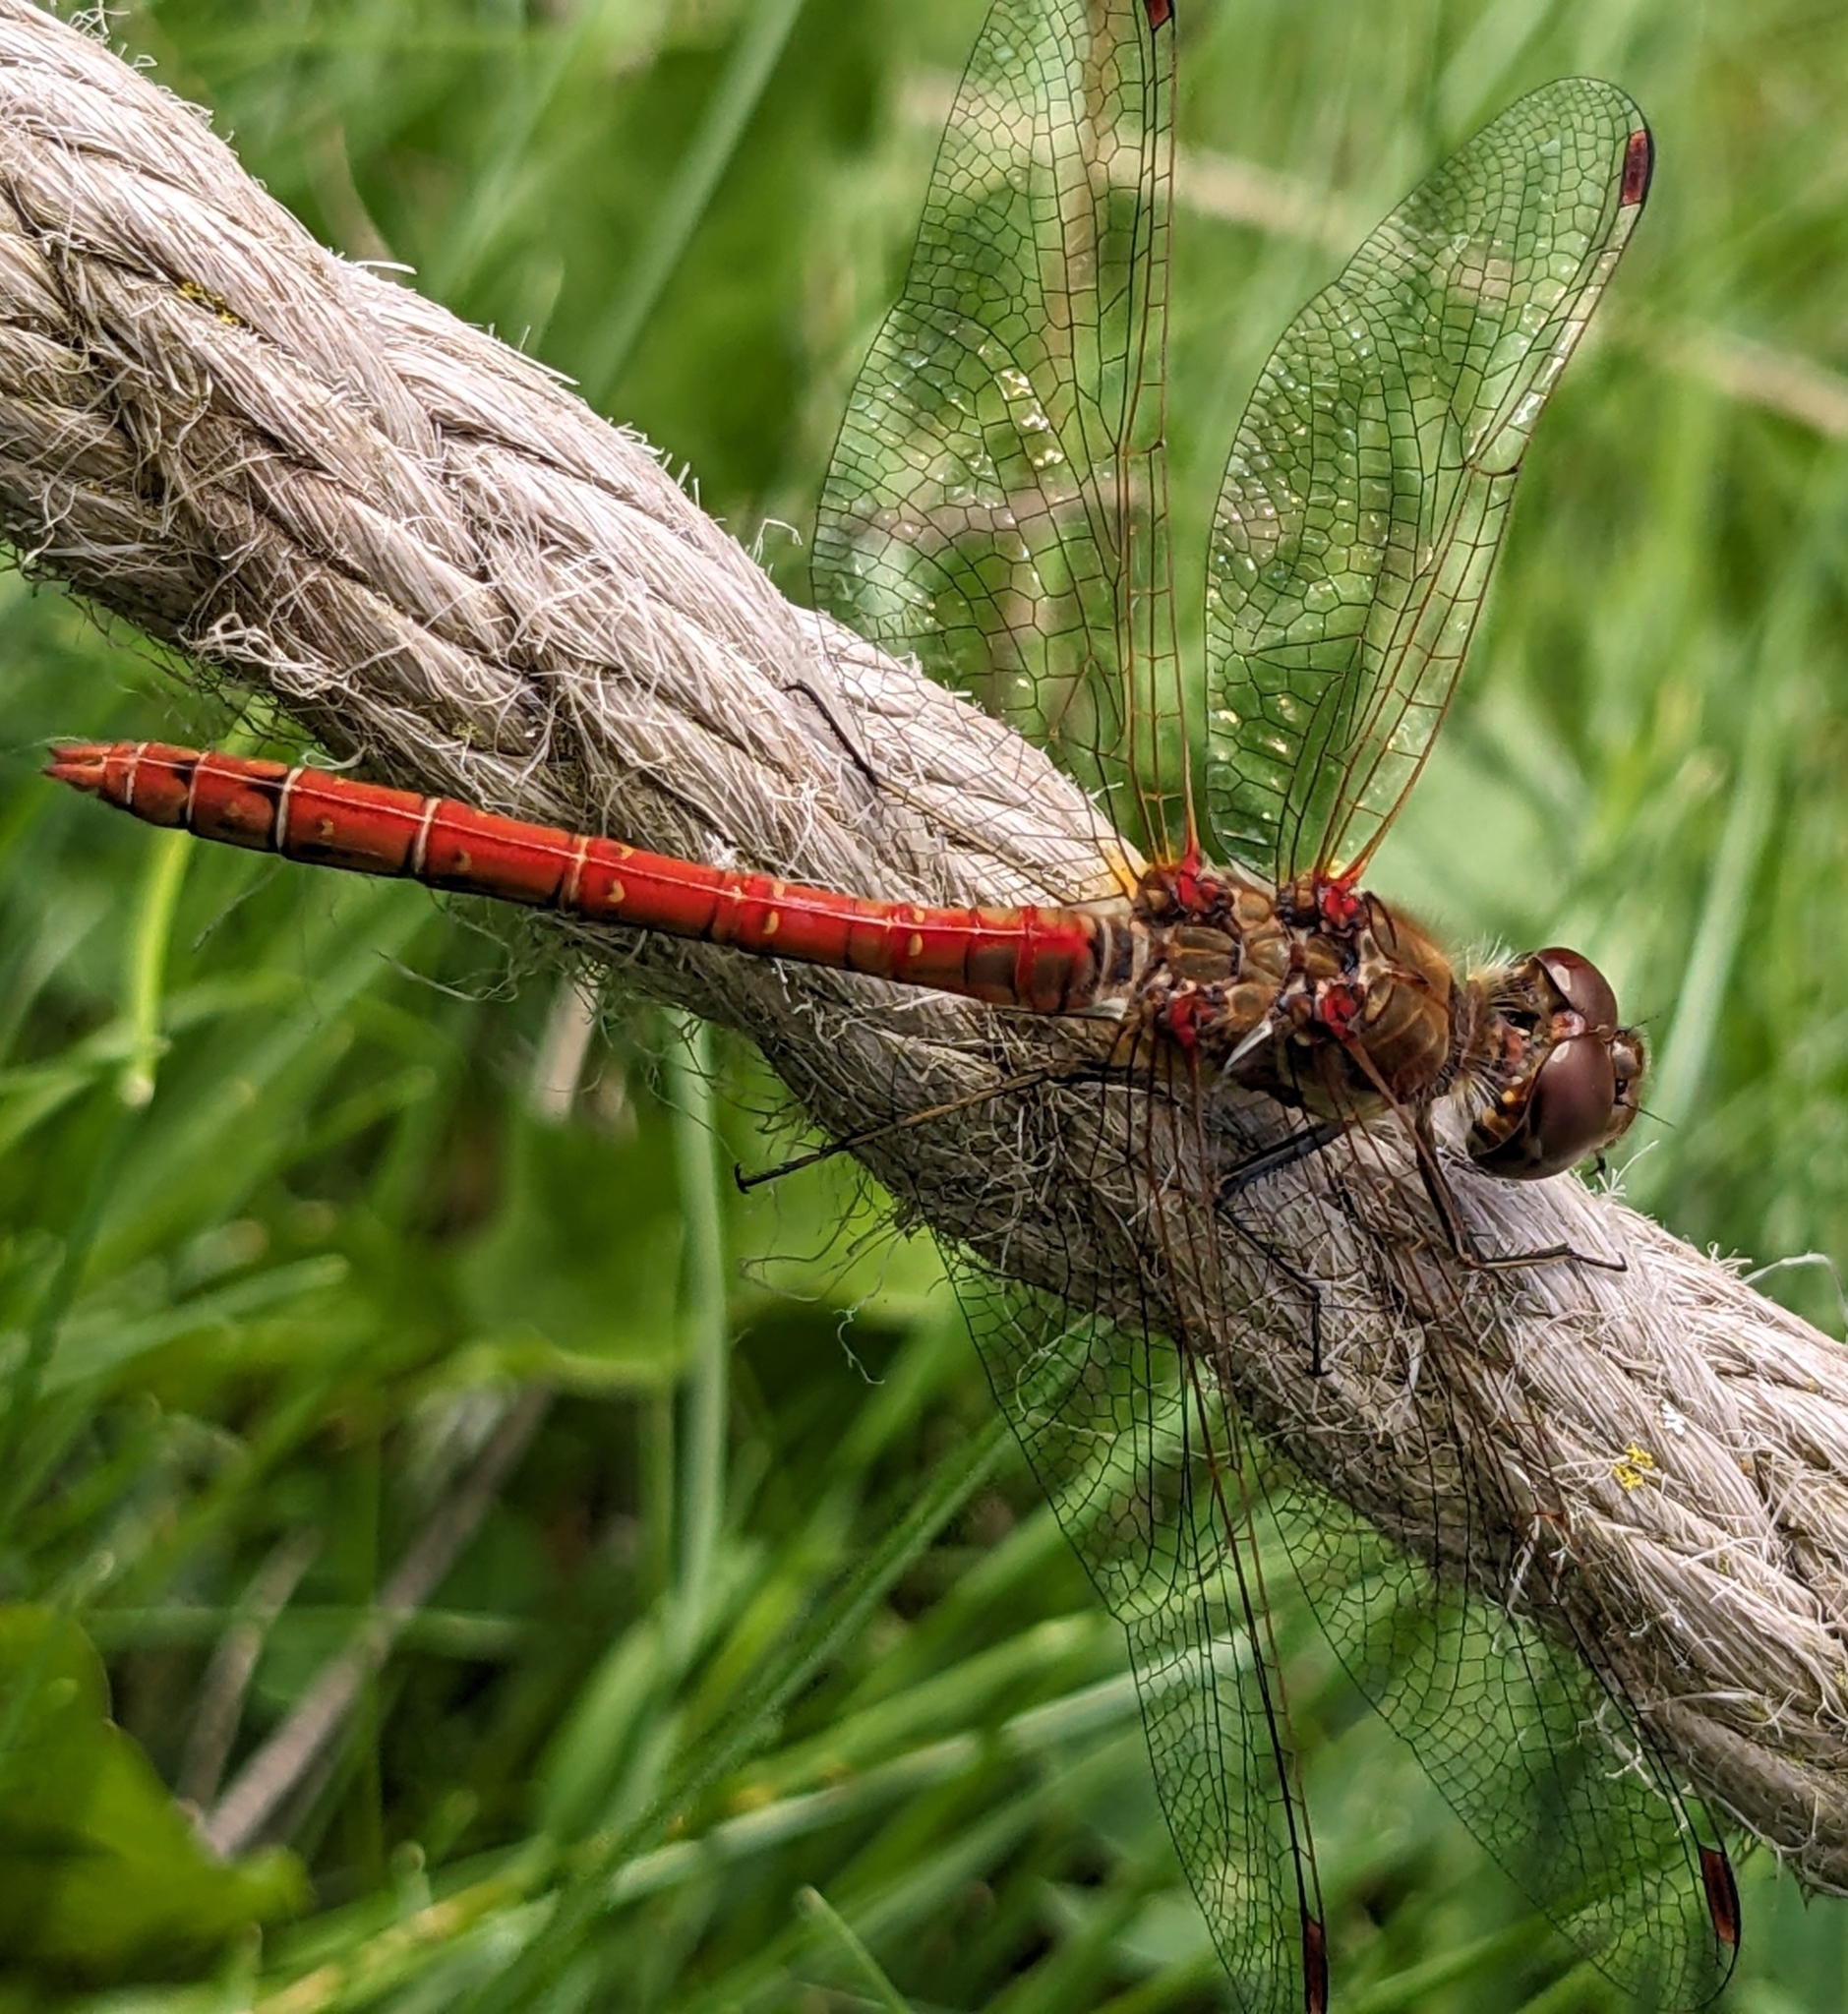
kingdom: Animalia
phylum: Arthropoda
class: Insecta
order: Odonata
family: Libellulidae
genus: Sympetrum
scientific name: Sympetrum striolatum
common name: Common darter
